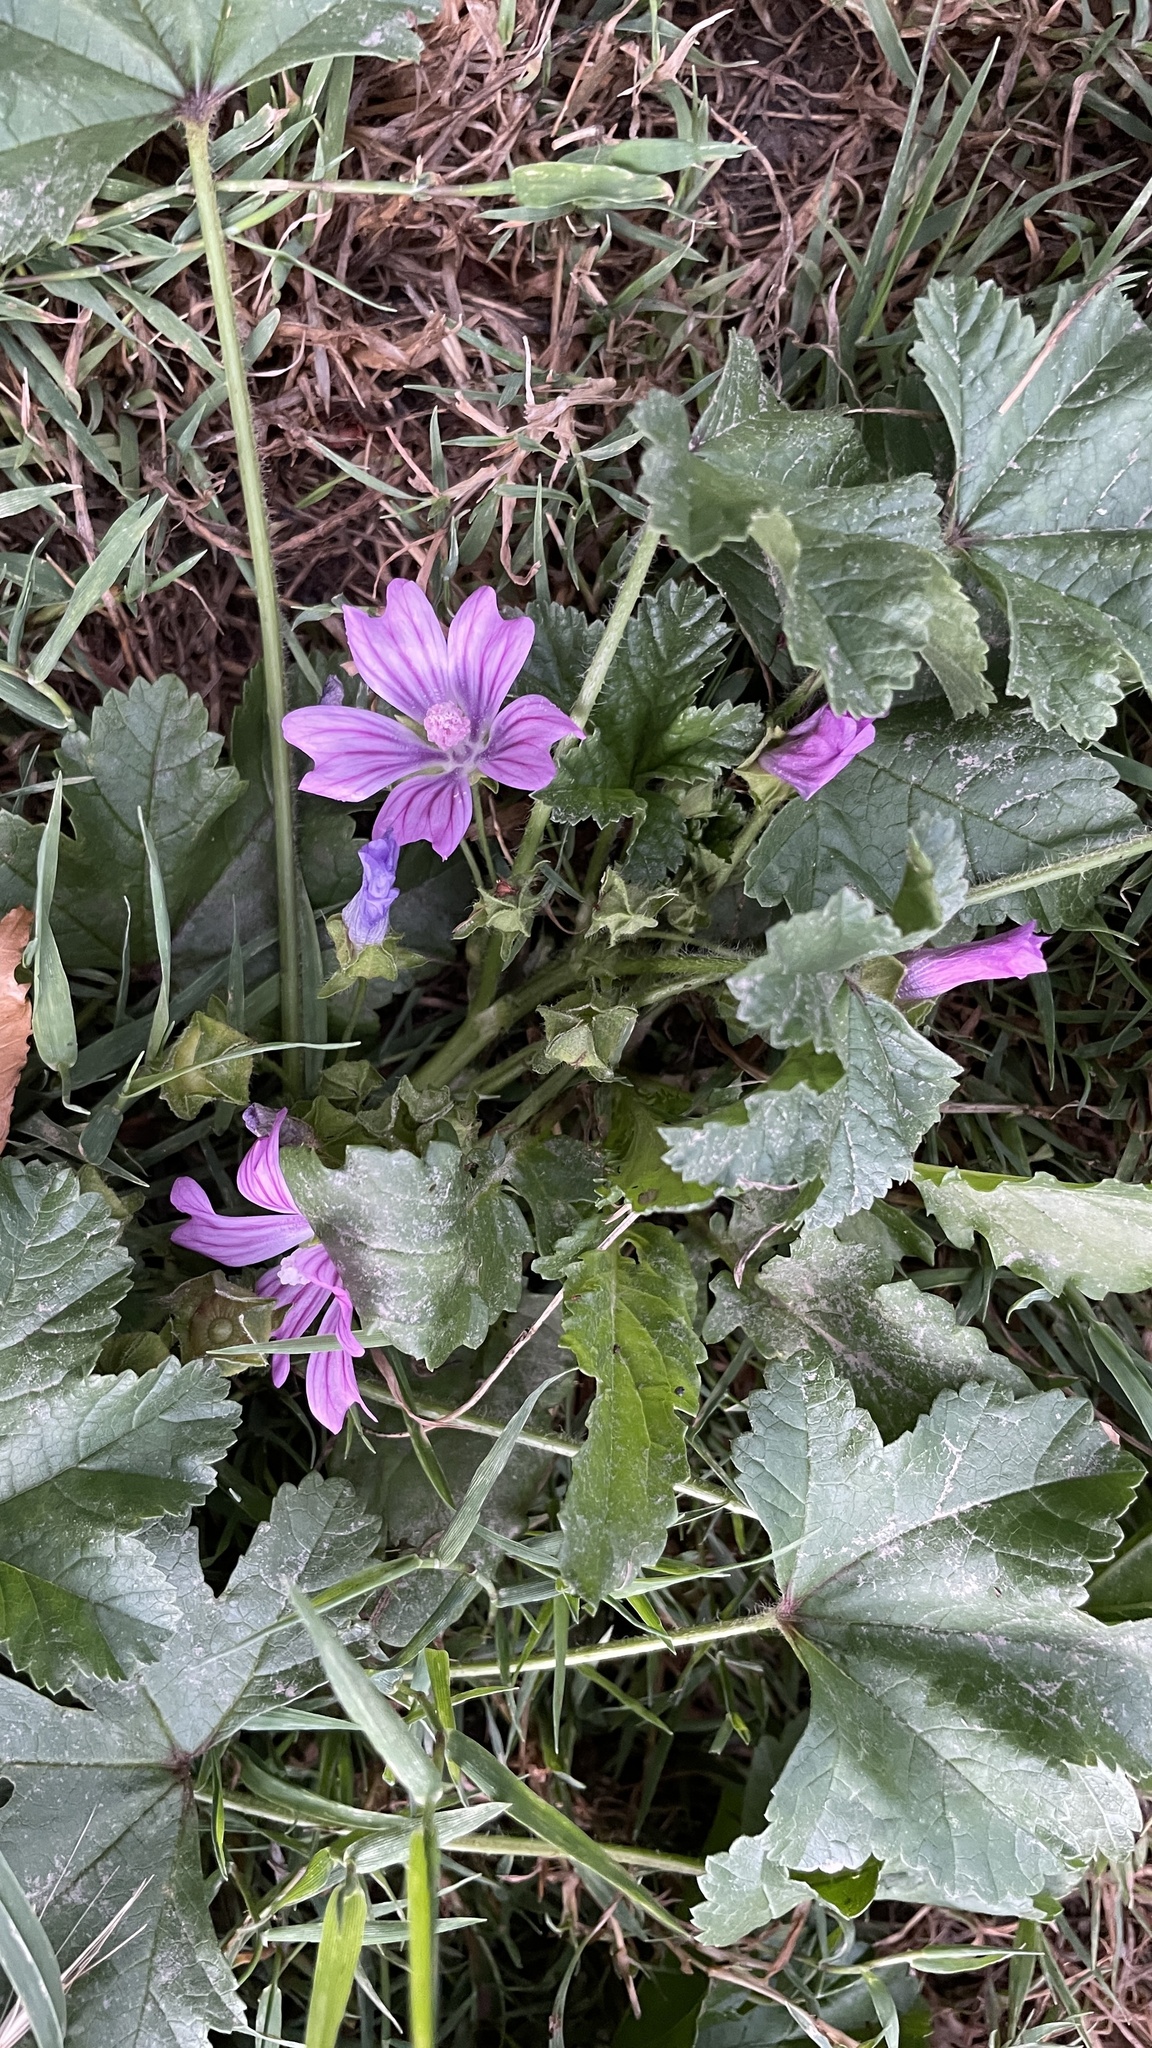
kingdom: Plantae
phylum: Tracheophyta
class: Magnoliopsida
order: Malvales
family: Malvaceae
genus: Malva
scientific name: Malva sylvestris
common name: Common mallow
